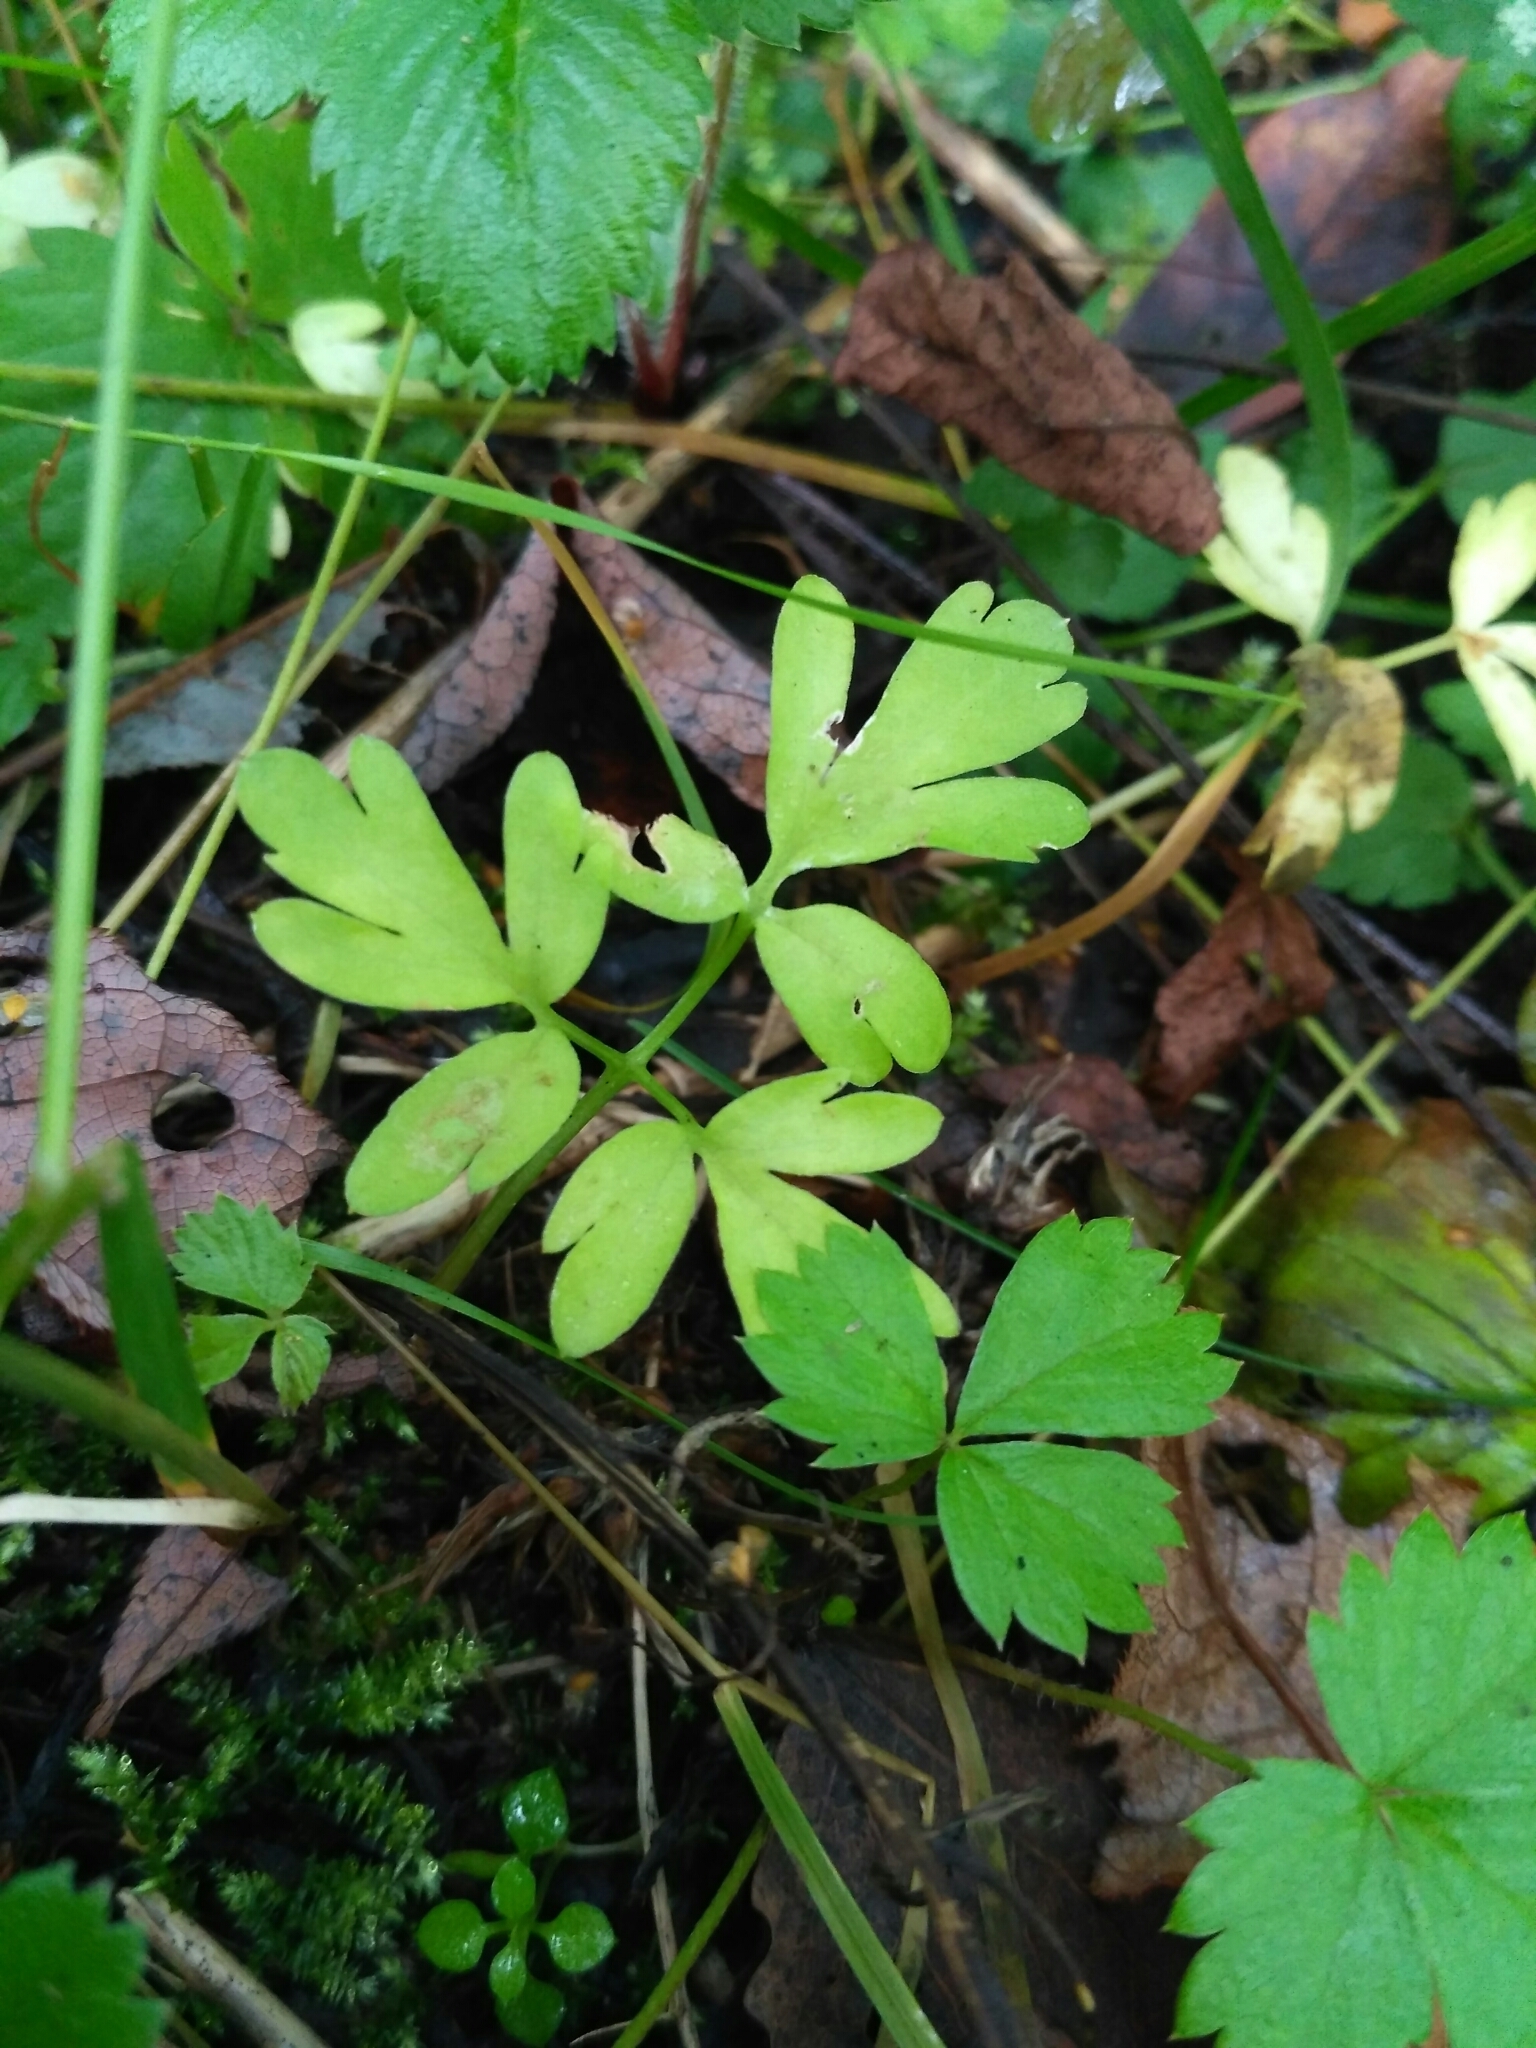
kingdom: Plantae
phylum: Tracheophyta
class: Magnoliopsida
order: Dipsacales
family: Viburnaceae
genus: Adoxa
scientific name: Adoxa moschatellina
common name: Moschatel
